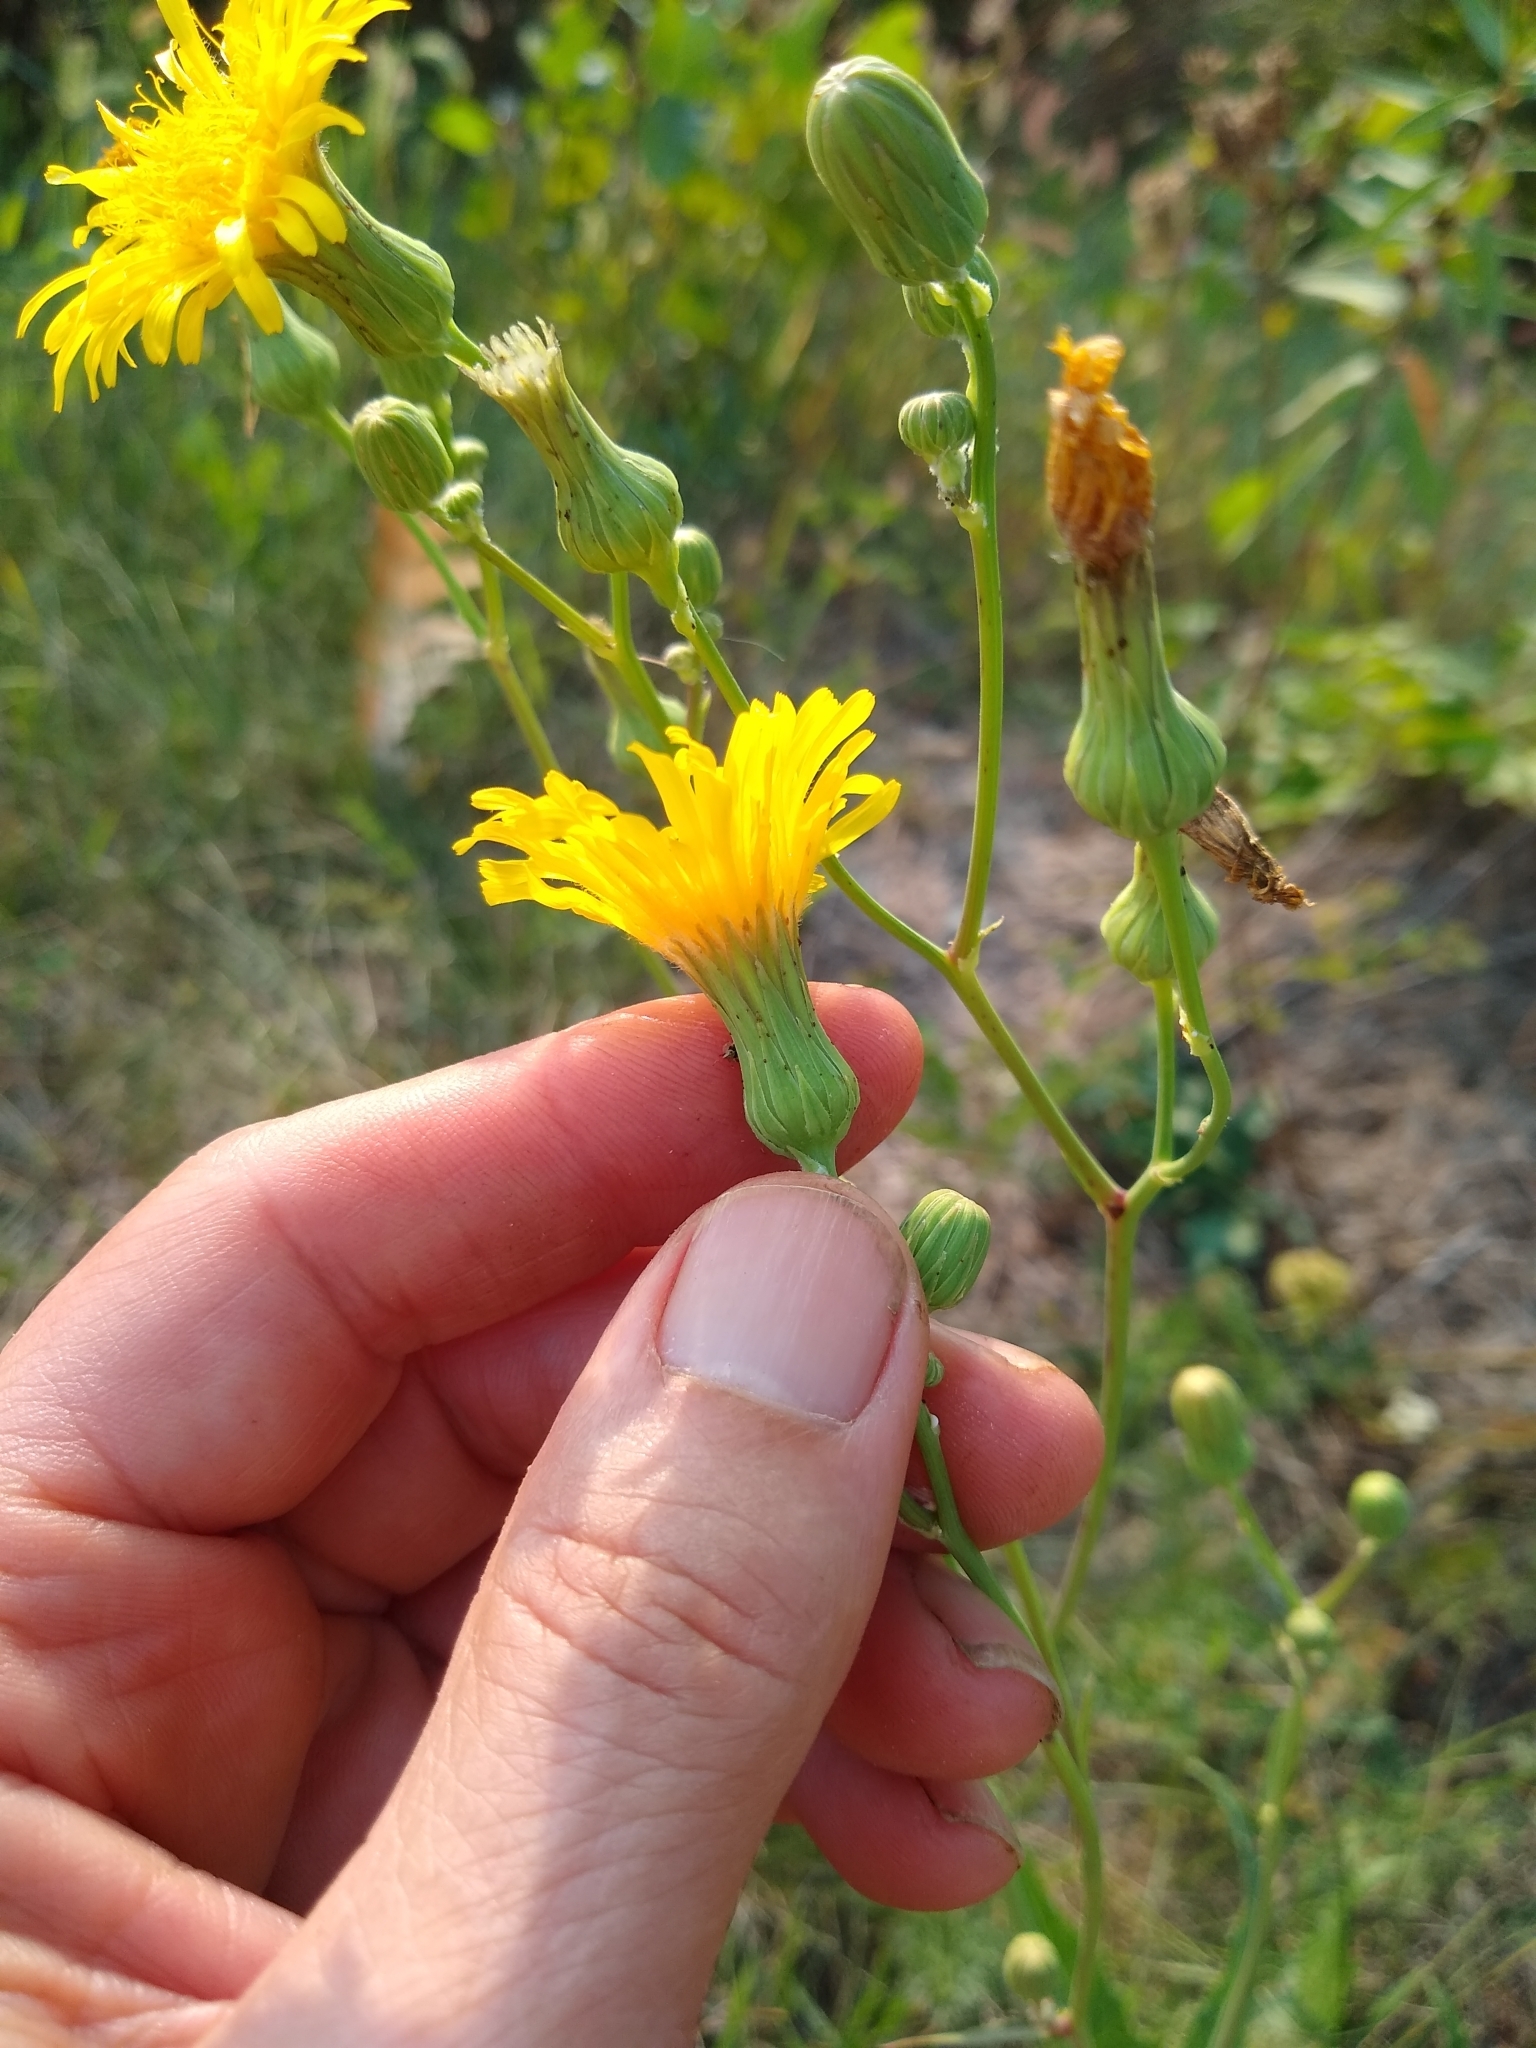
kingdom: Plantae
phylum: Tracheophyta
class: Magnoliopsida
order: Asterales
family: Asteraceae
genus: Sonchus
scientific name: Sonchus arvensis
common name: Perennial sow-thistle
